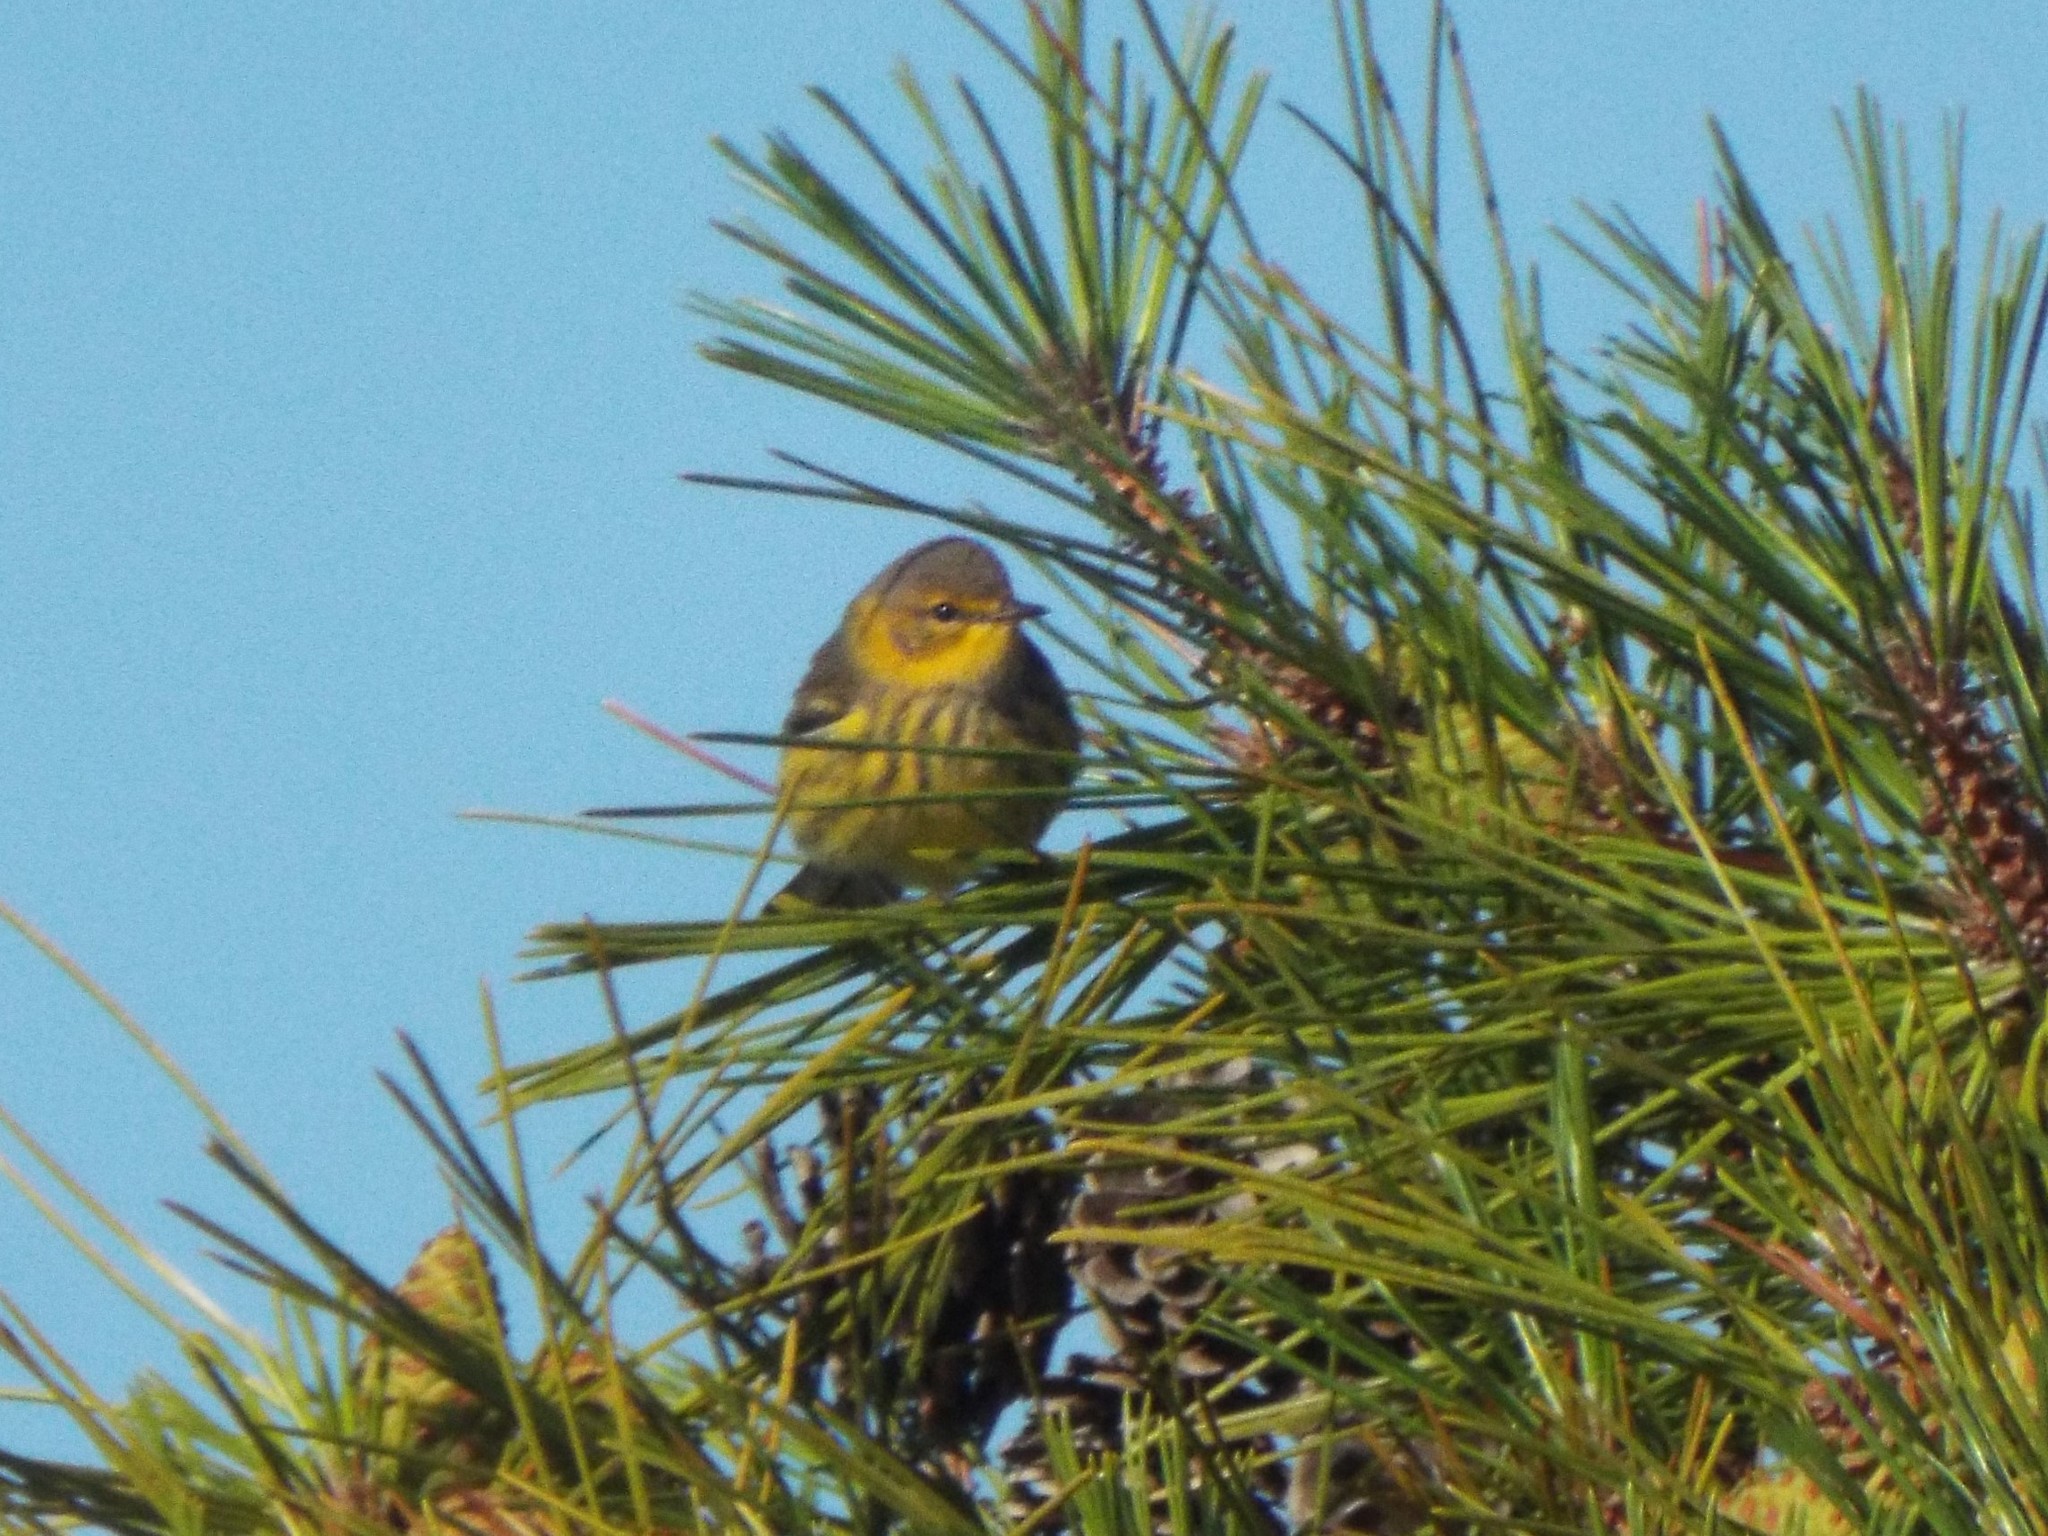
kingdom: Animalia
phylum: Chordata
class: Aves
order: Passeriformes
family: Parulidae
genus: Setophaga
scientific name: Setophaga tigrina
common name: Cape may warbler
